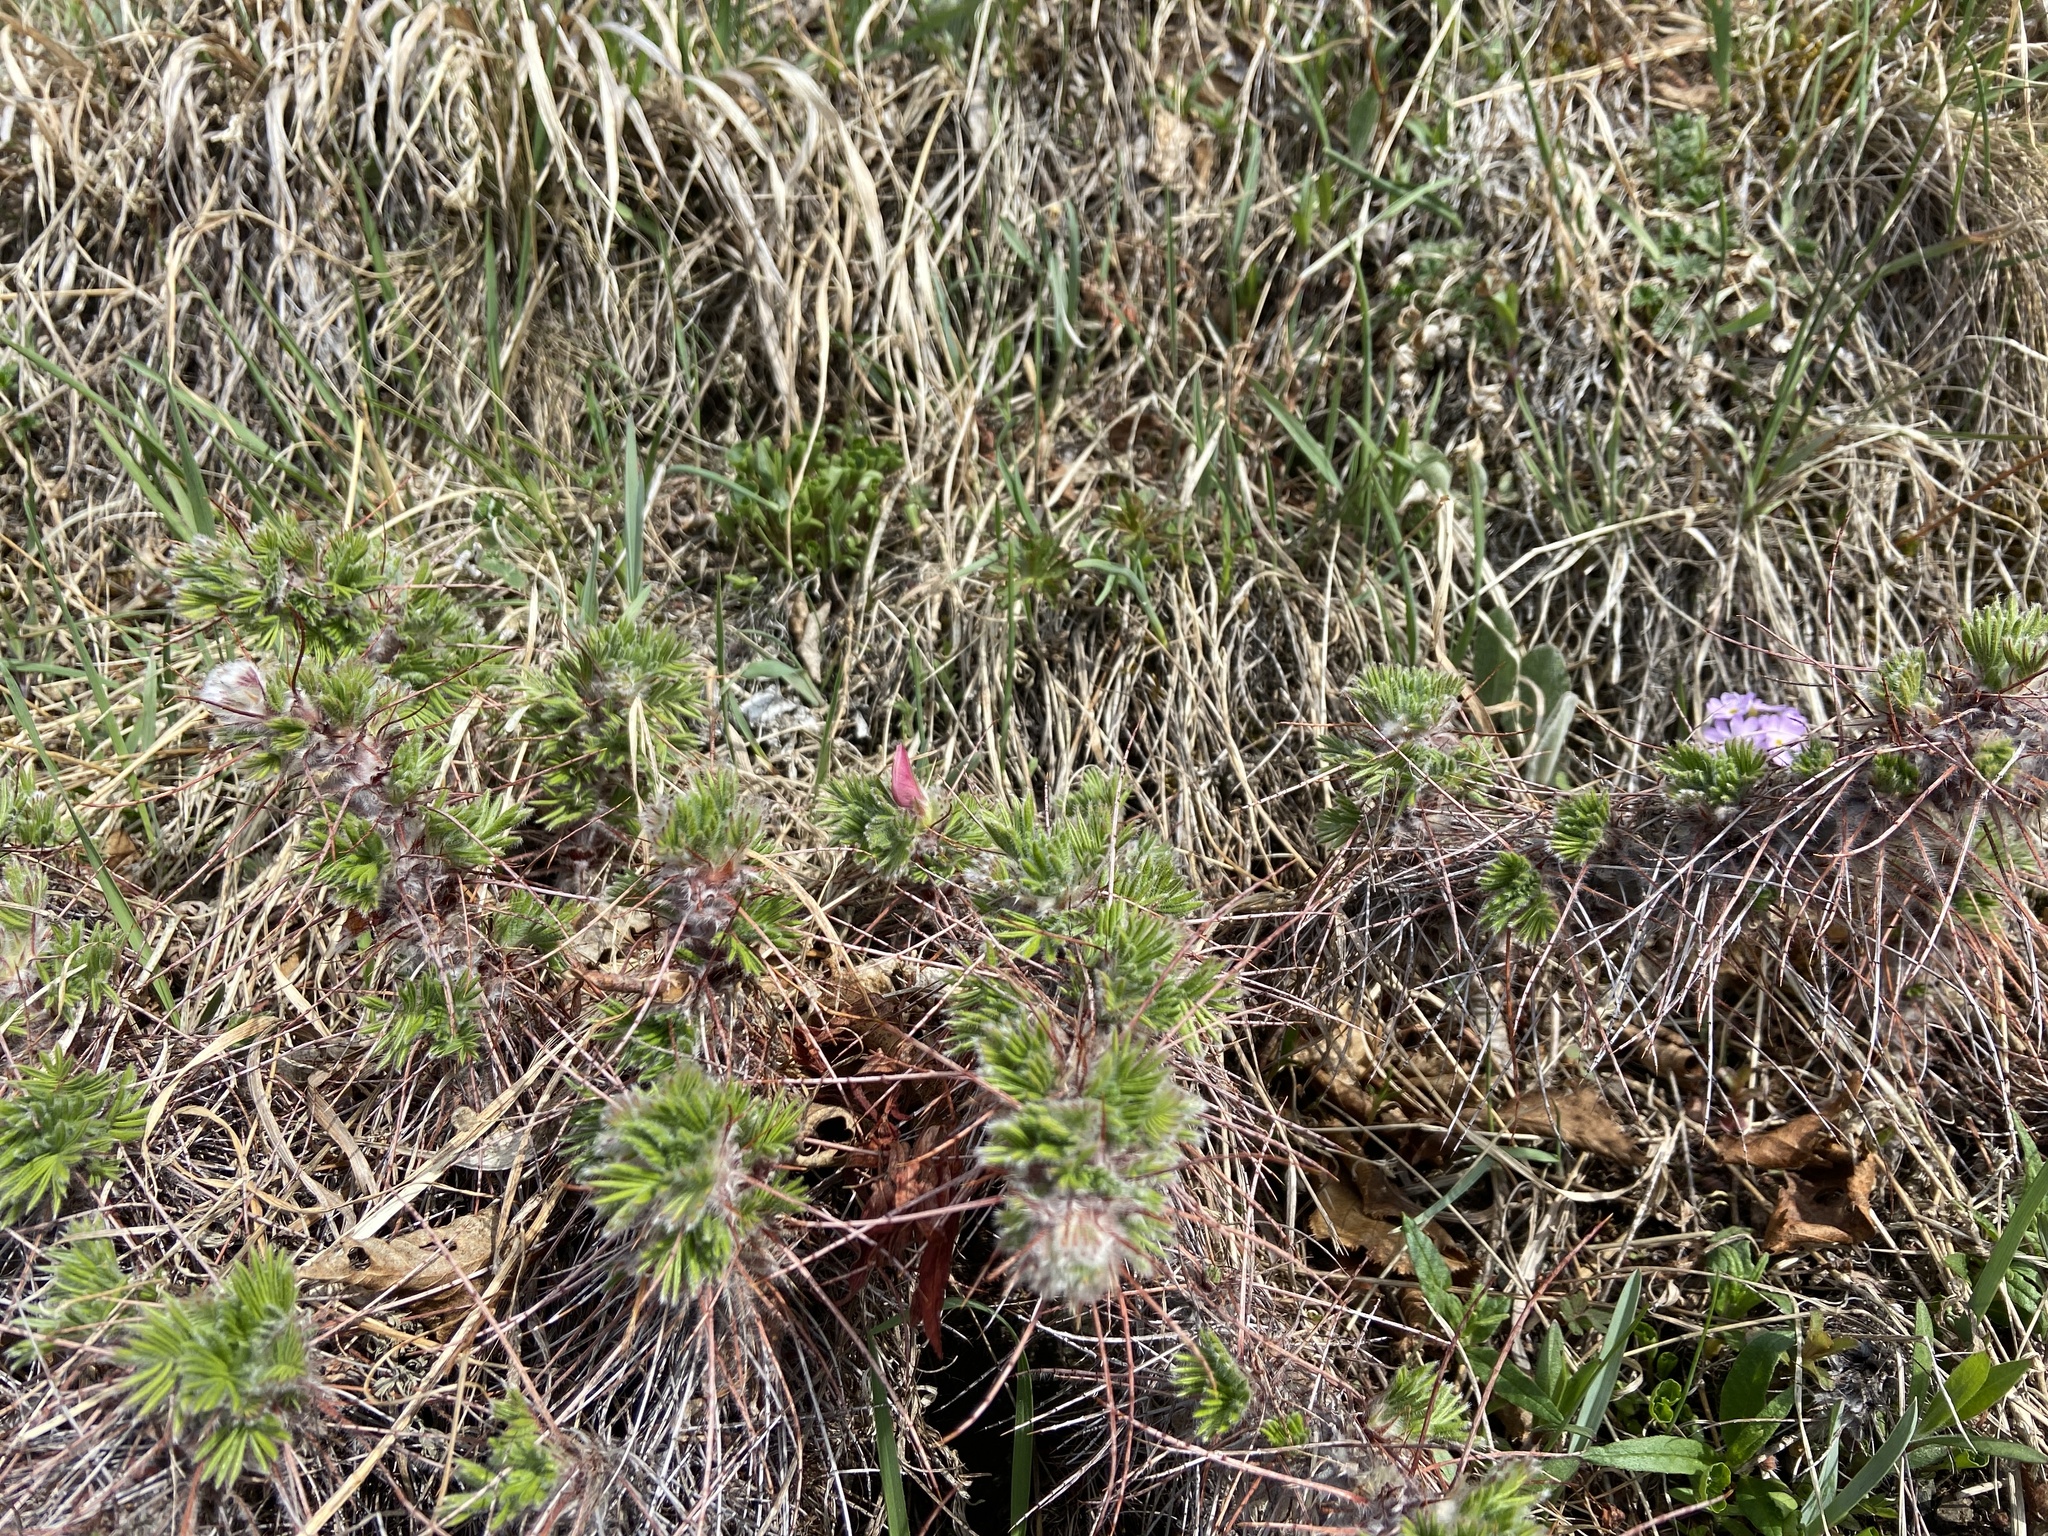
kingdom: Plantae
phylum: Tracheophyta
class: Magnoliopsida
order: Fabales
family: Fabaceae
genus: Caragana
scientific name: Caragana jubata
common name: Shag-spine peashrub
